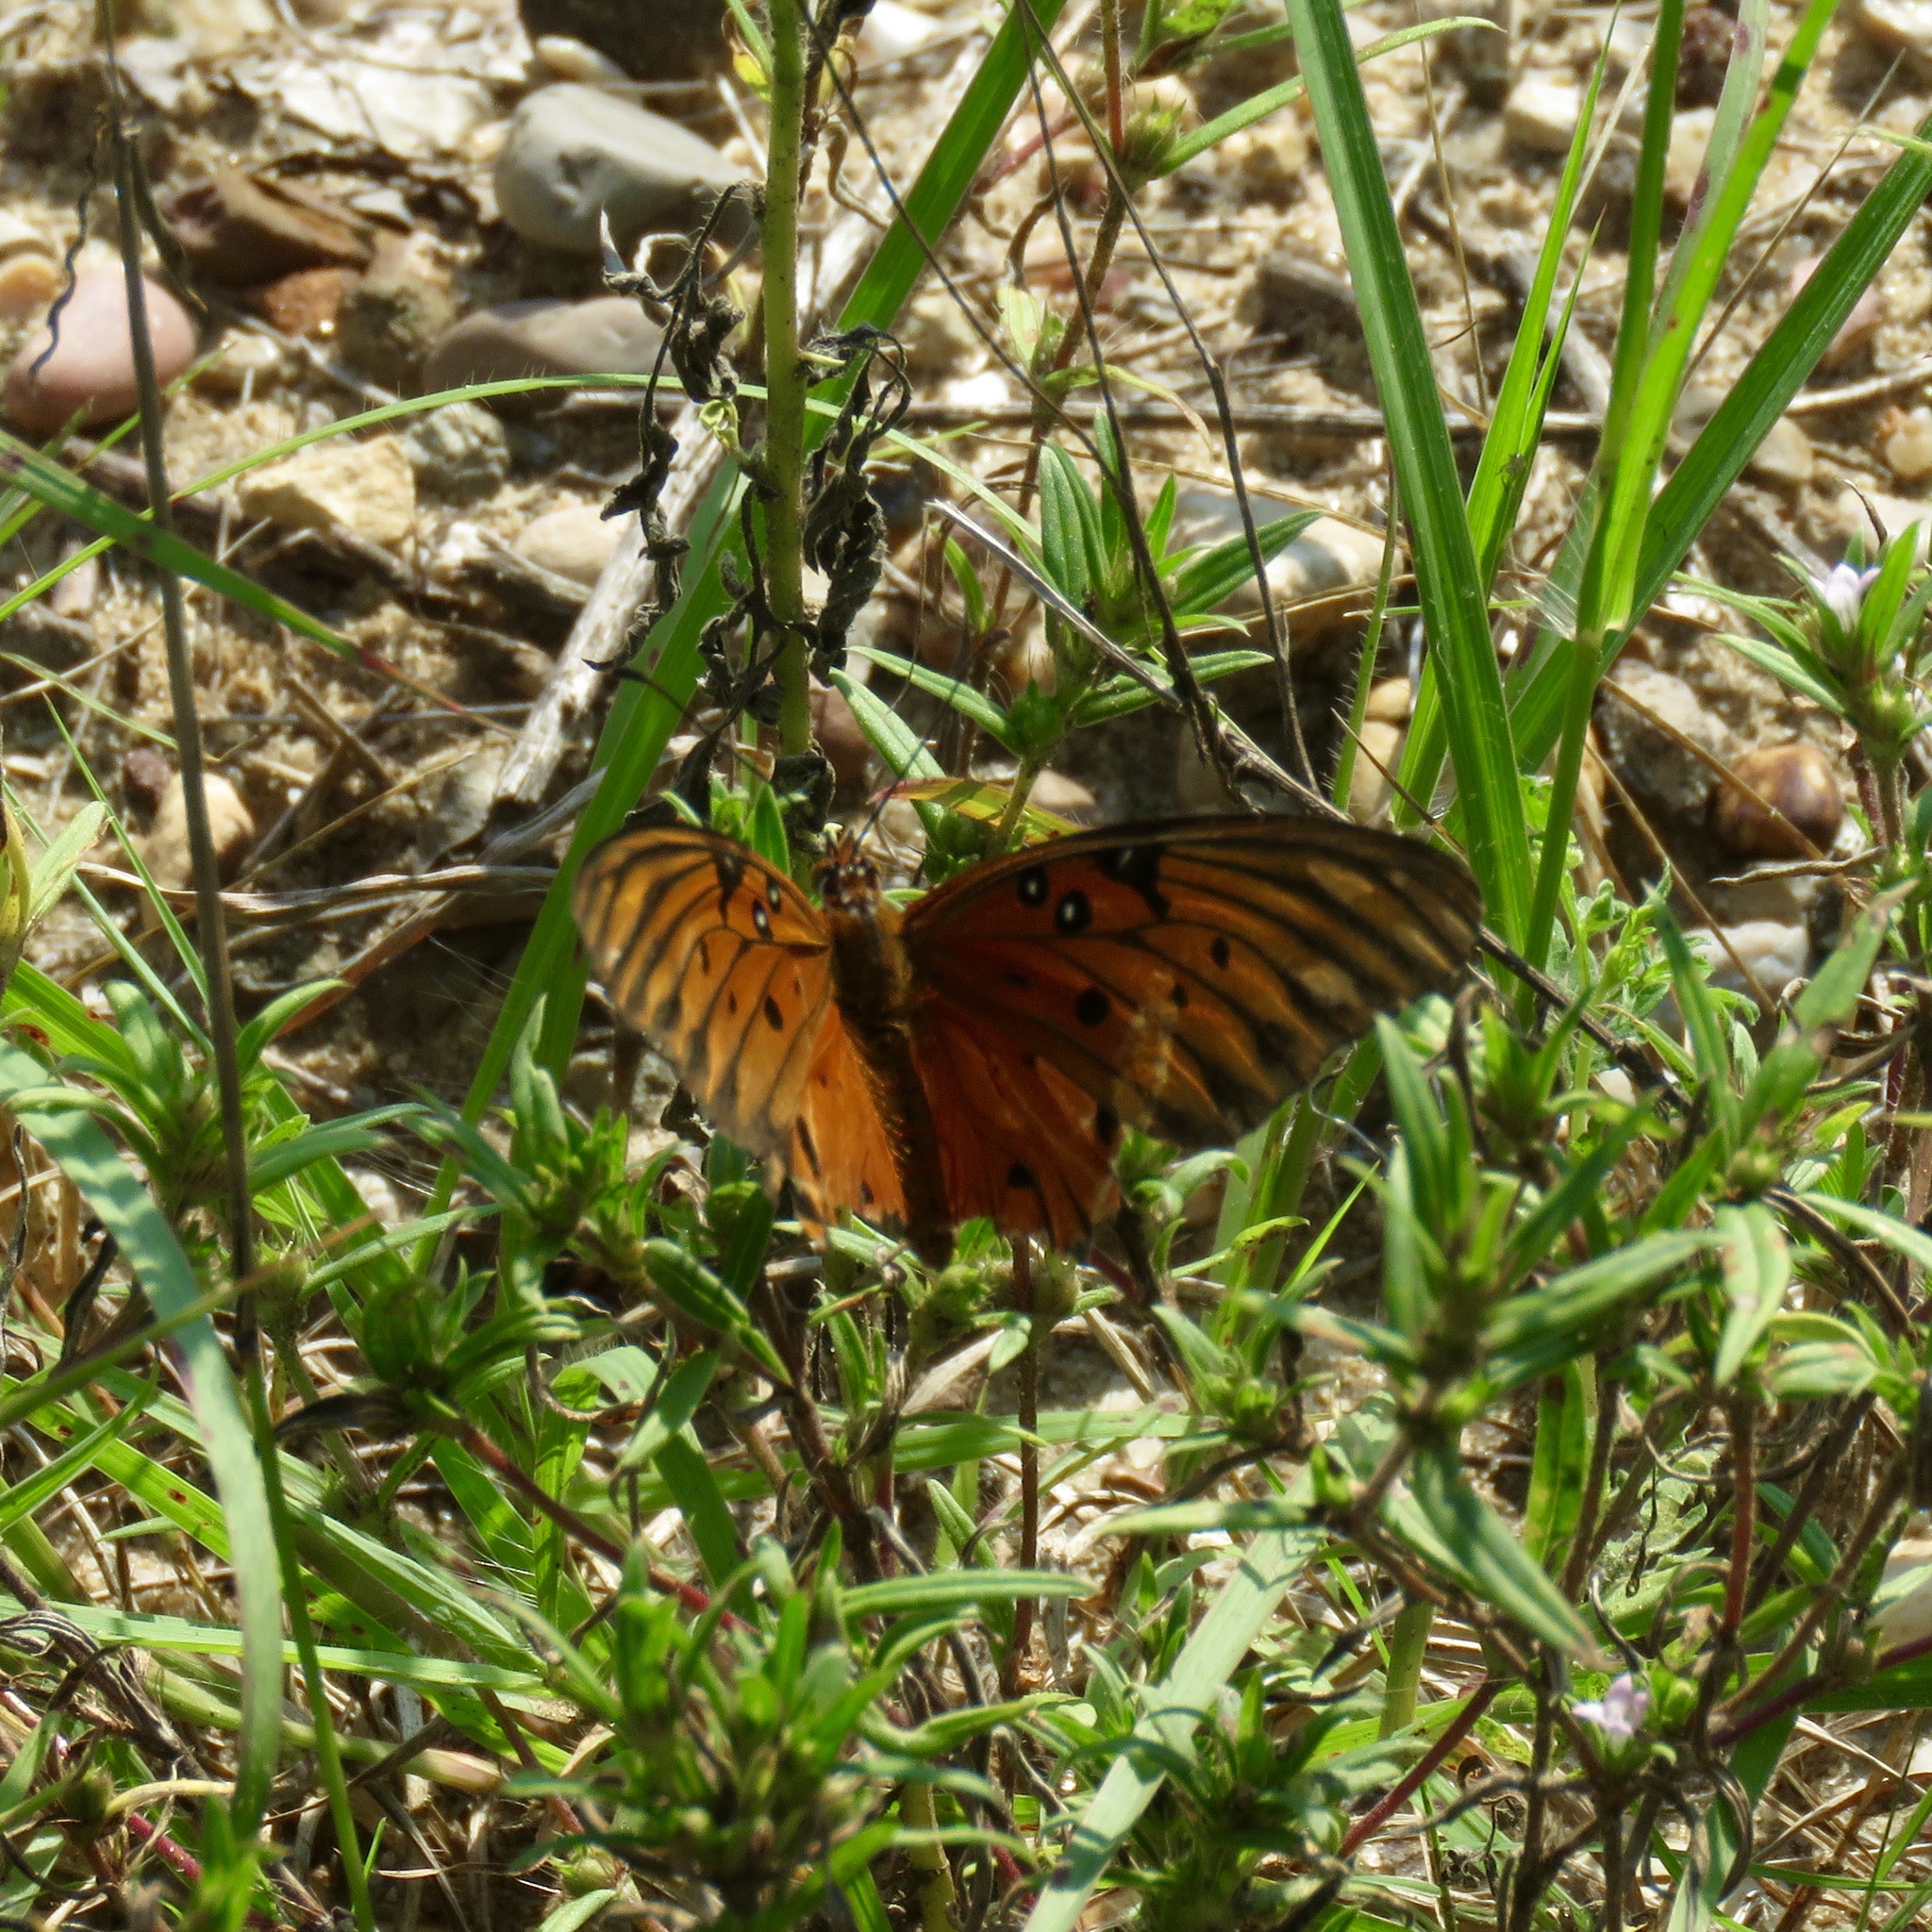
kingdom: Animalia
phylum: Arthropoda
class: Insecta
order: Lepidoptera
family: Nymphalidae
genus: Dione
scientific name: Dione vanillae
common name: Gulf fritillary
